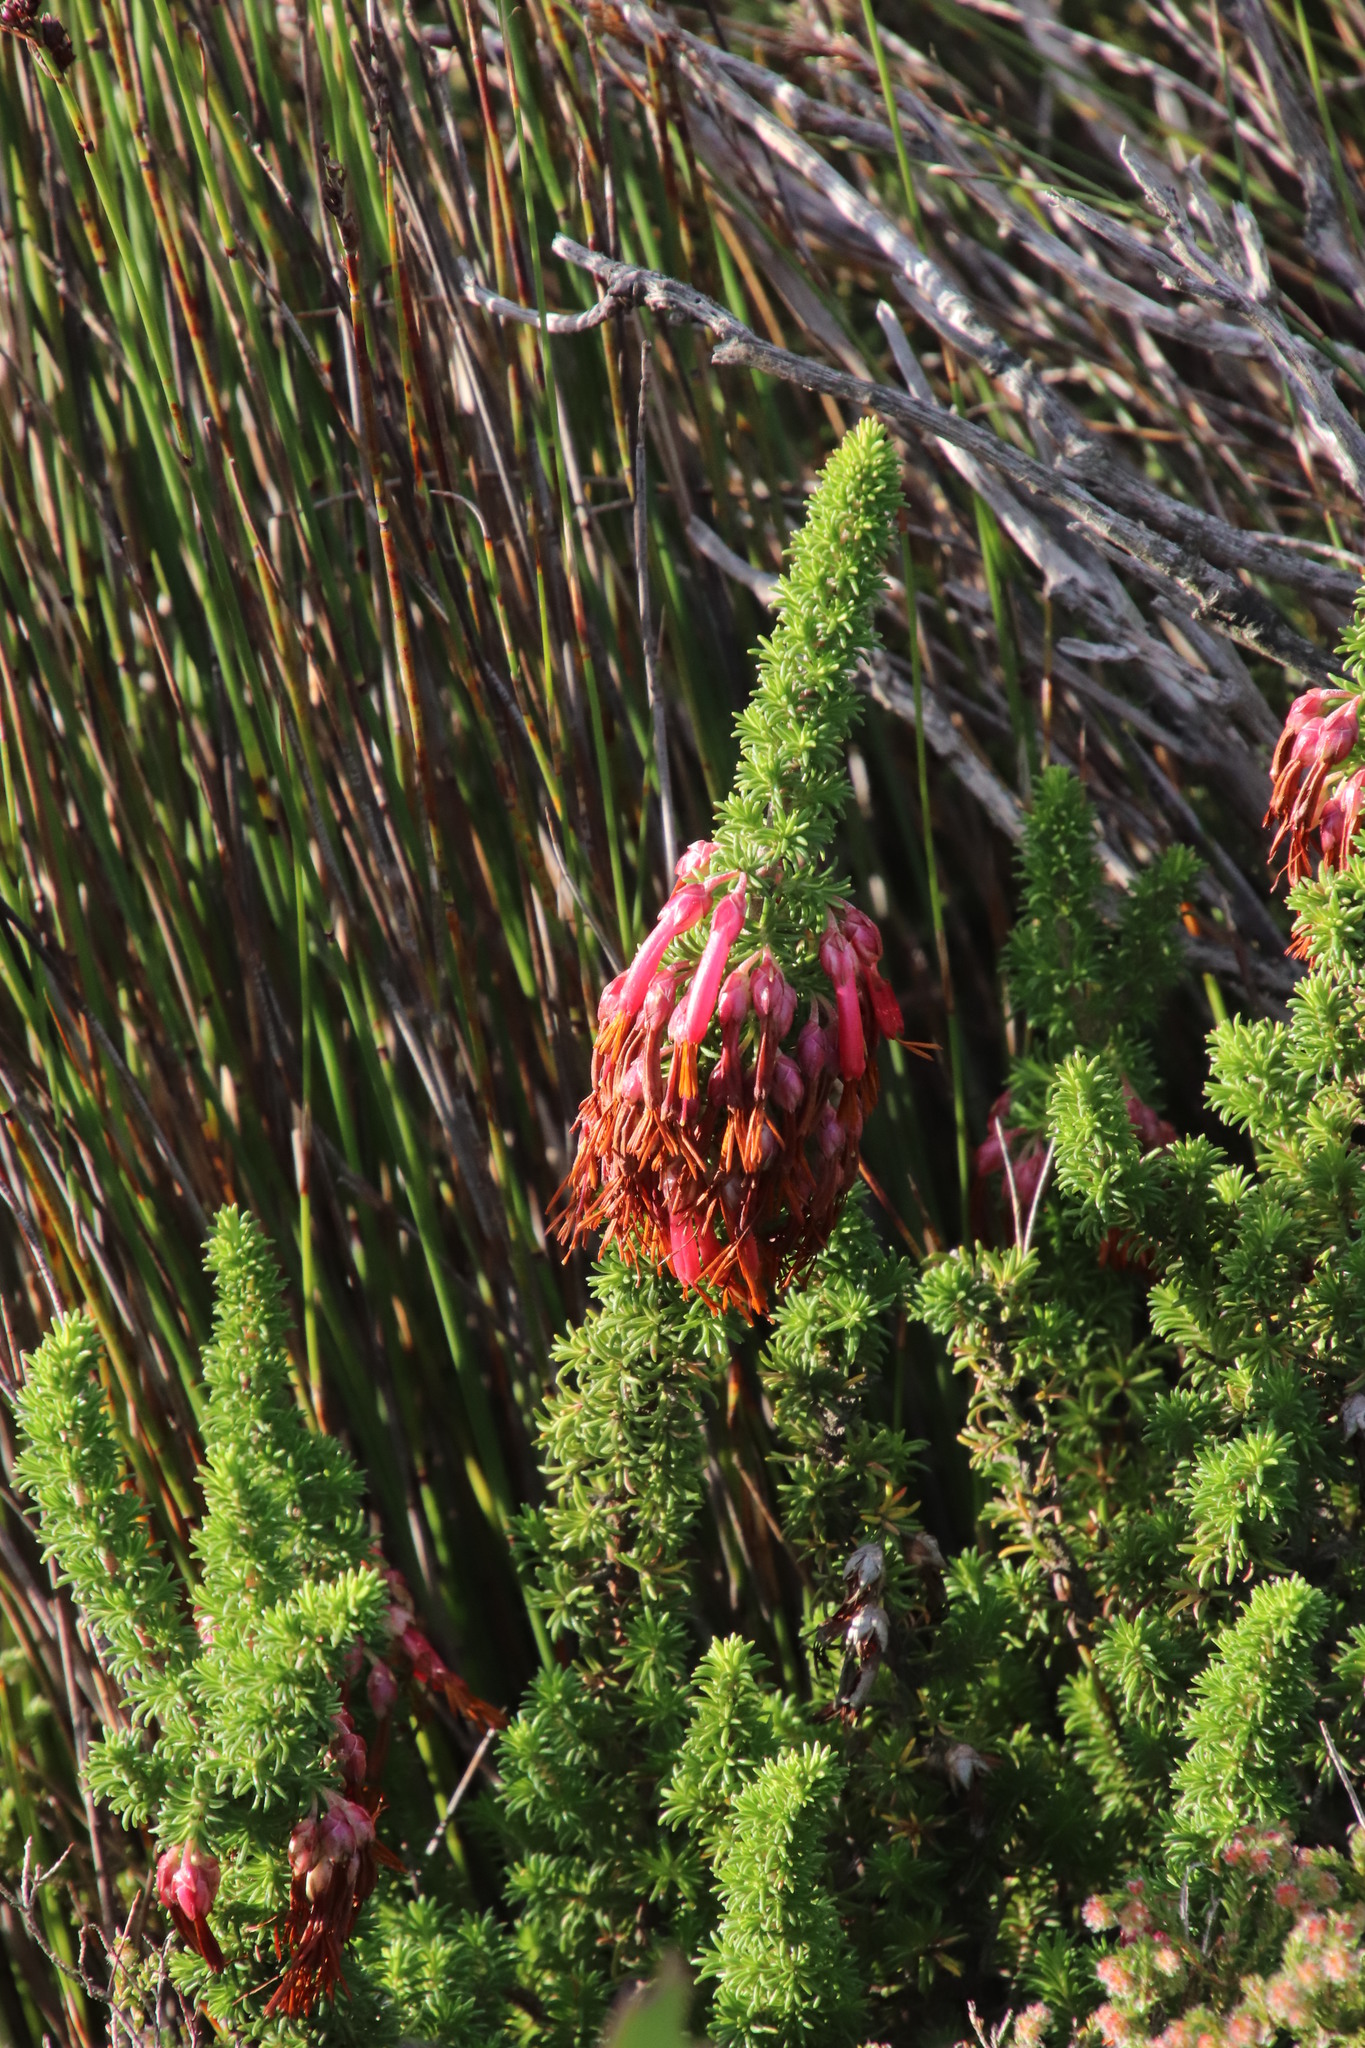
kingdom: Plantae
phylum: Tracheophyta
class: Magnoliopsida
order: Ericales
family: Ericaceae
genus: Erica
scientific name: Erica coccinea
